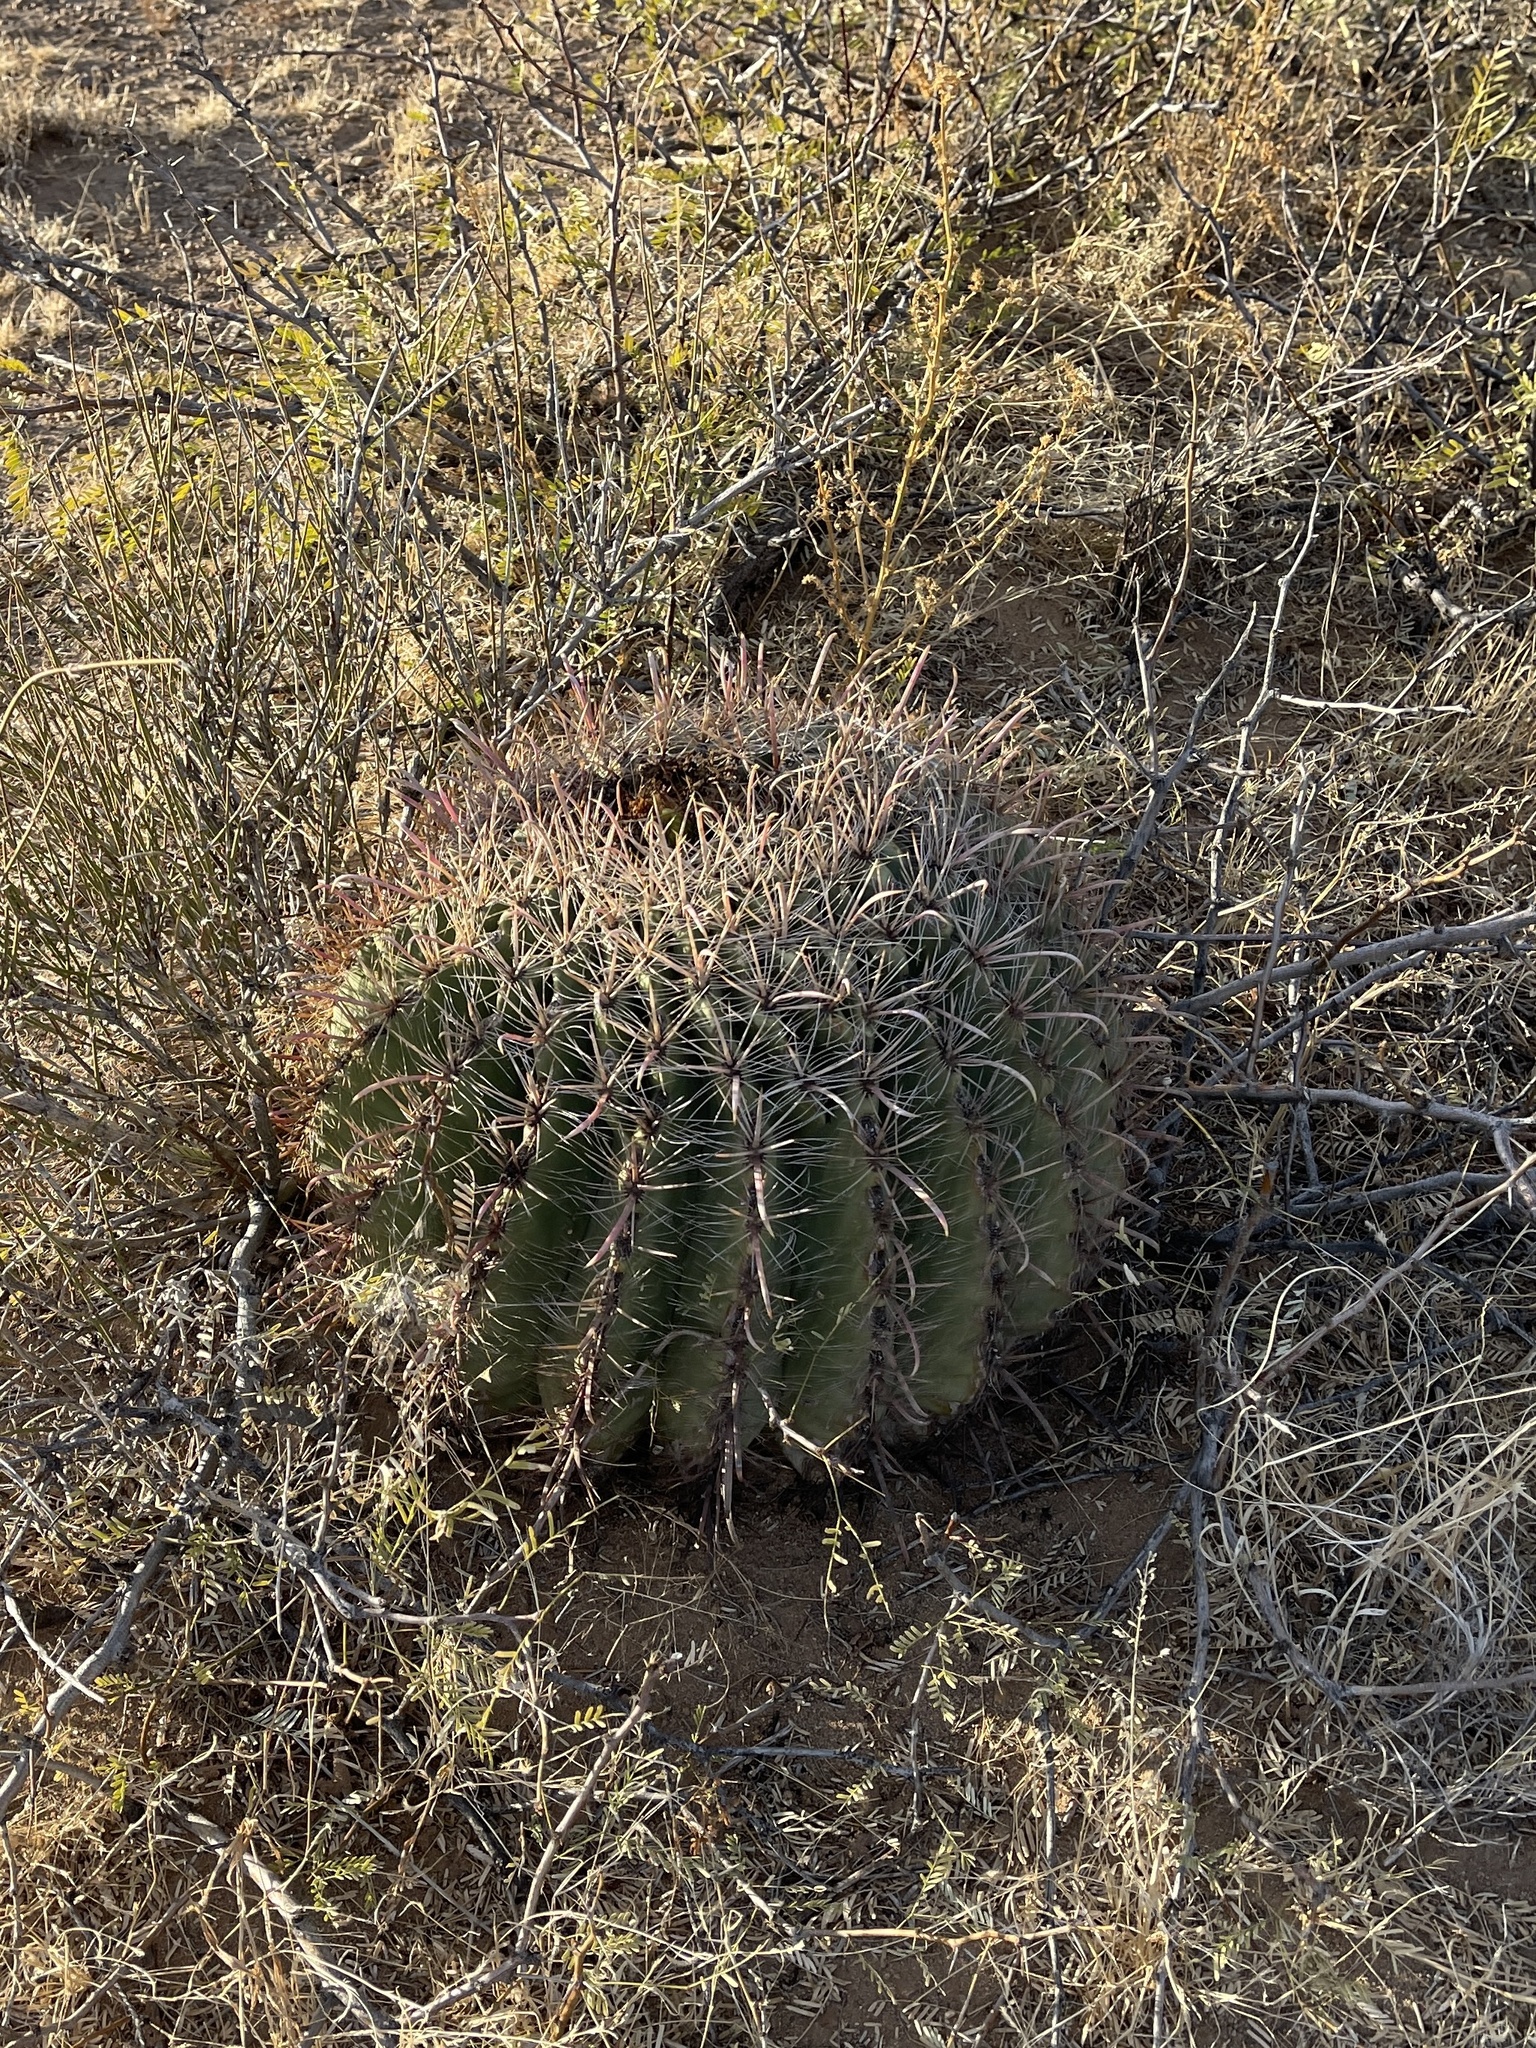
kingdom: Plantae
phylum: Tracheophyta
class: Magnoliopsida
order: Caryophyllales
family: Cactaceae
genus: Ferocactus
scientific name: Ferocactus wislizeni
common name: Candy barrel cactus
